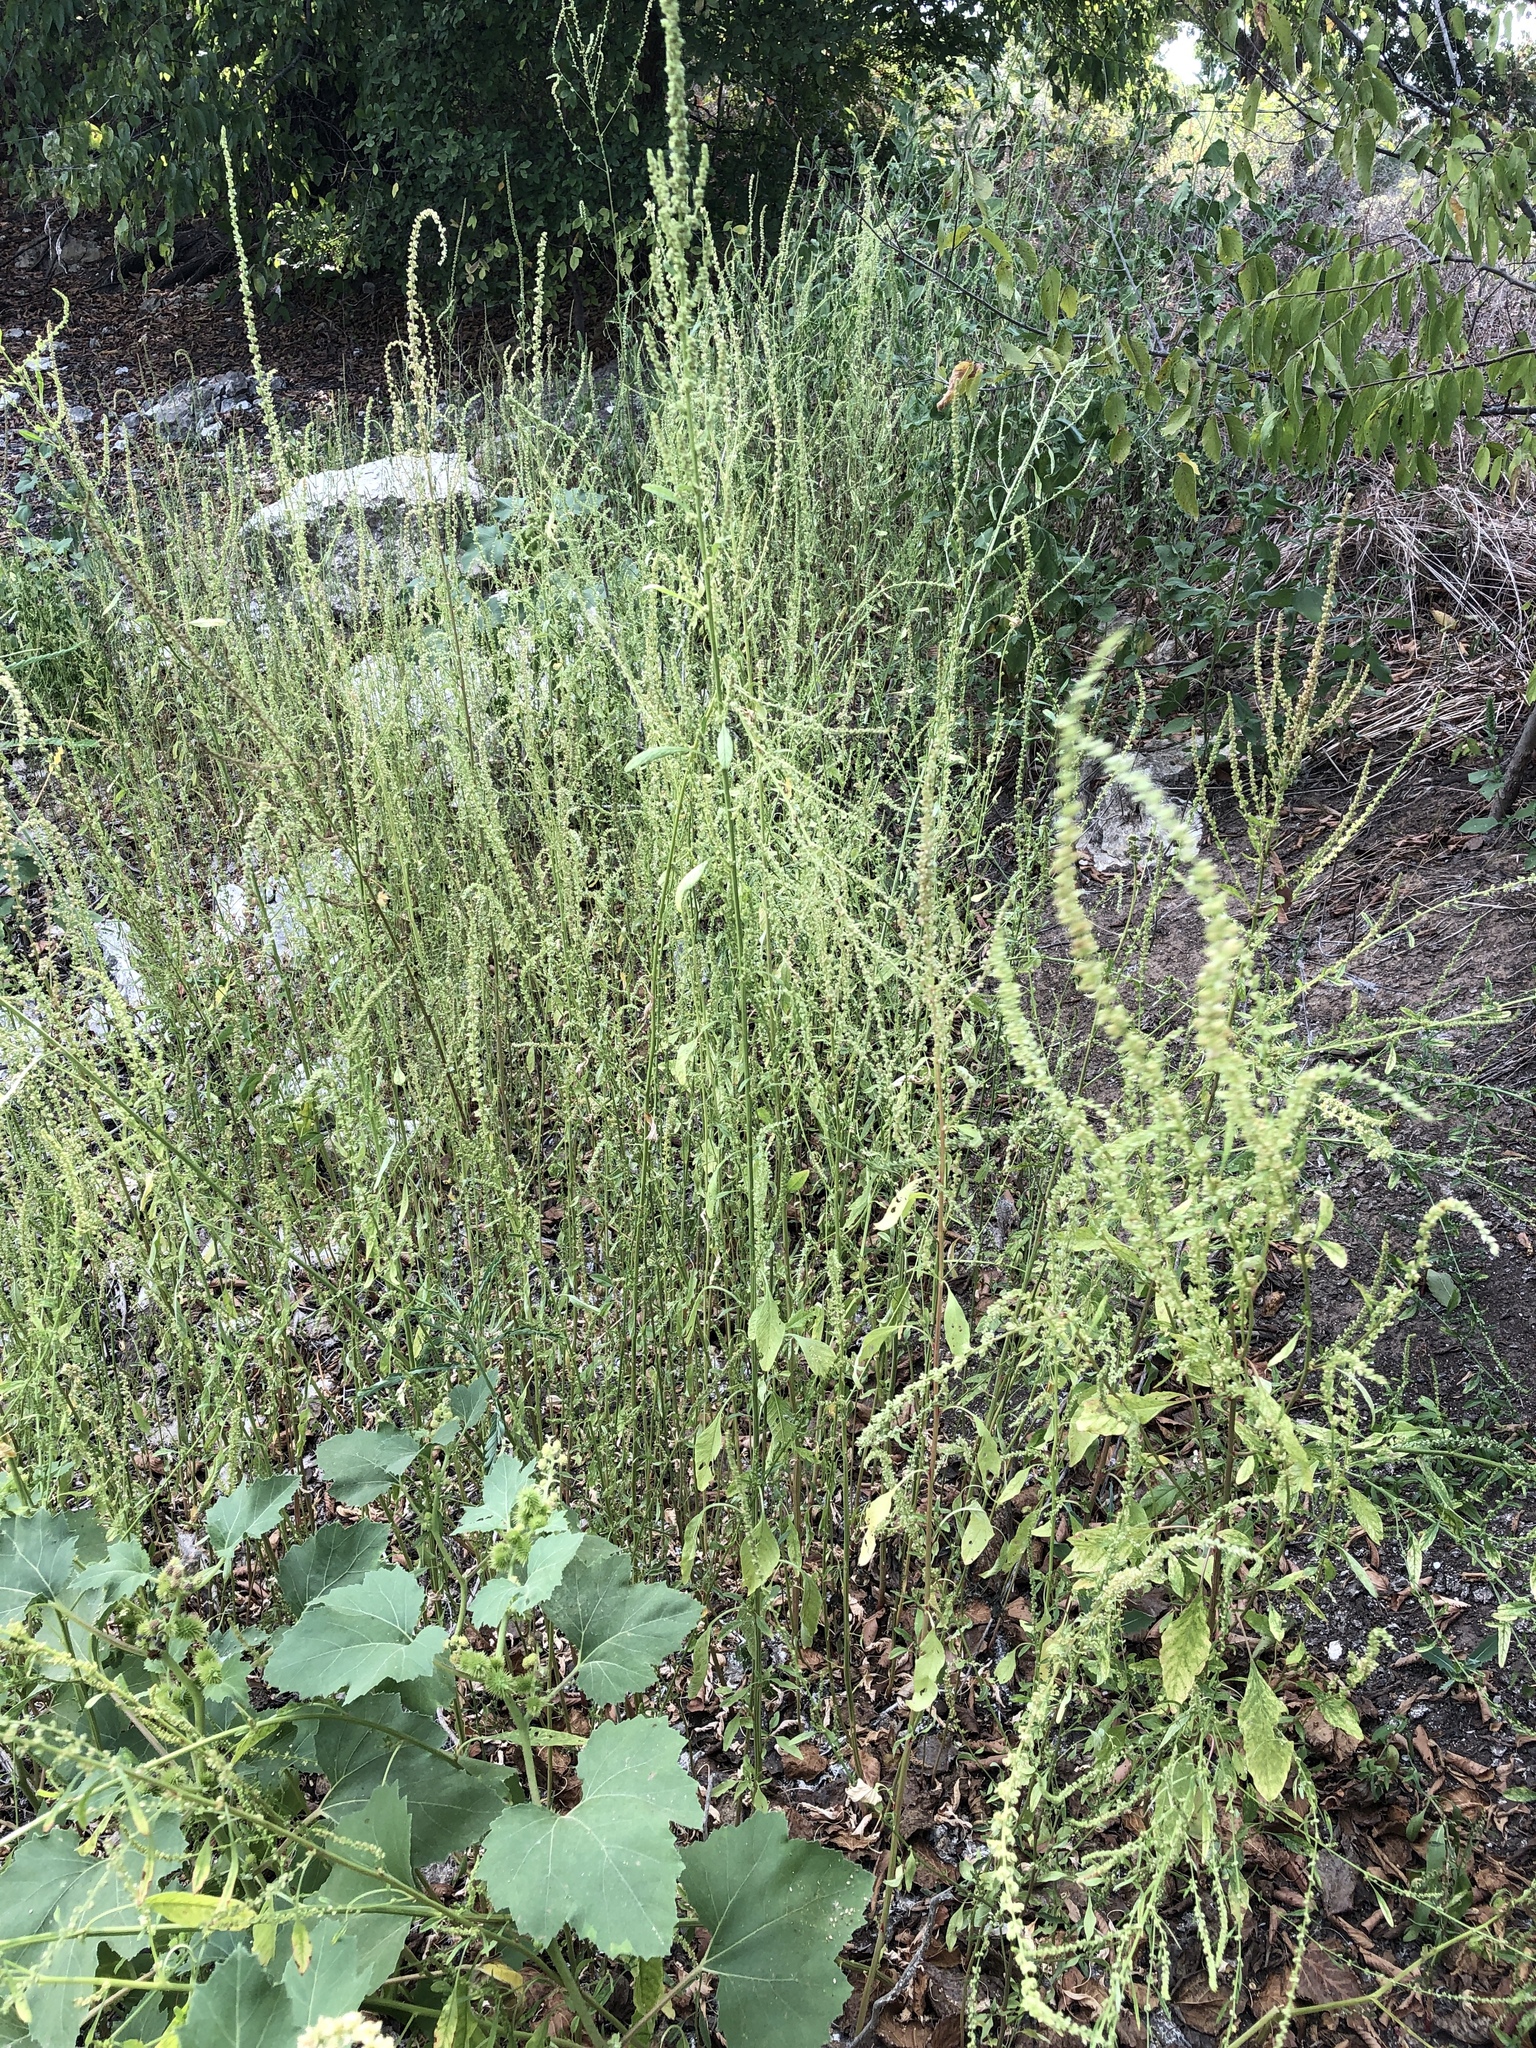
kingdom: Plantae
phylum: Tracheophyta
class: Magnoliopsida
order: Caryophyllales
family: Polygonaceae
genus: Rumex
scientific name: Rumex pulcher
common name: Fiddle dock
